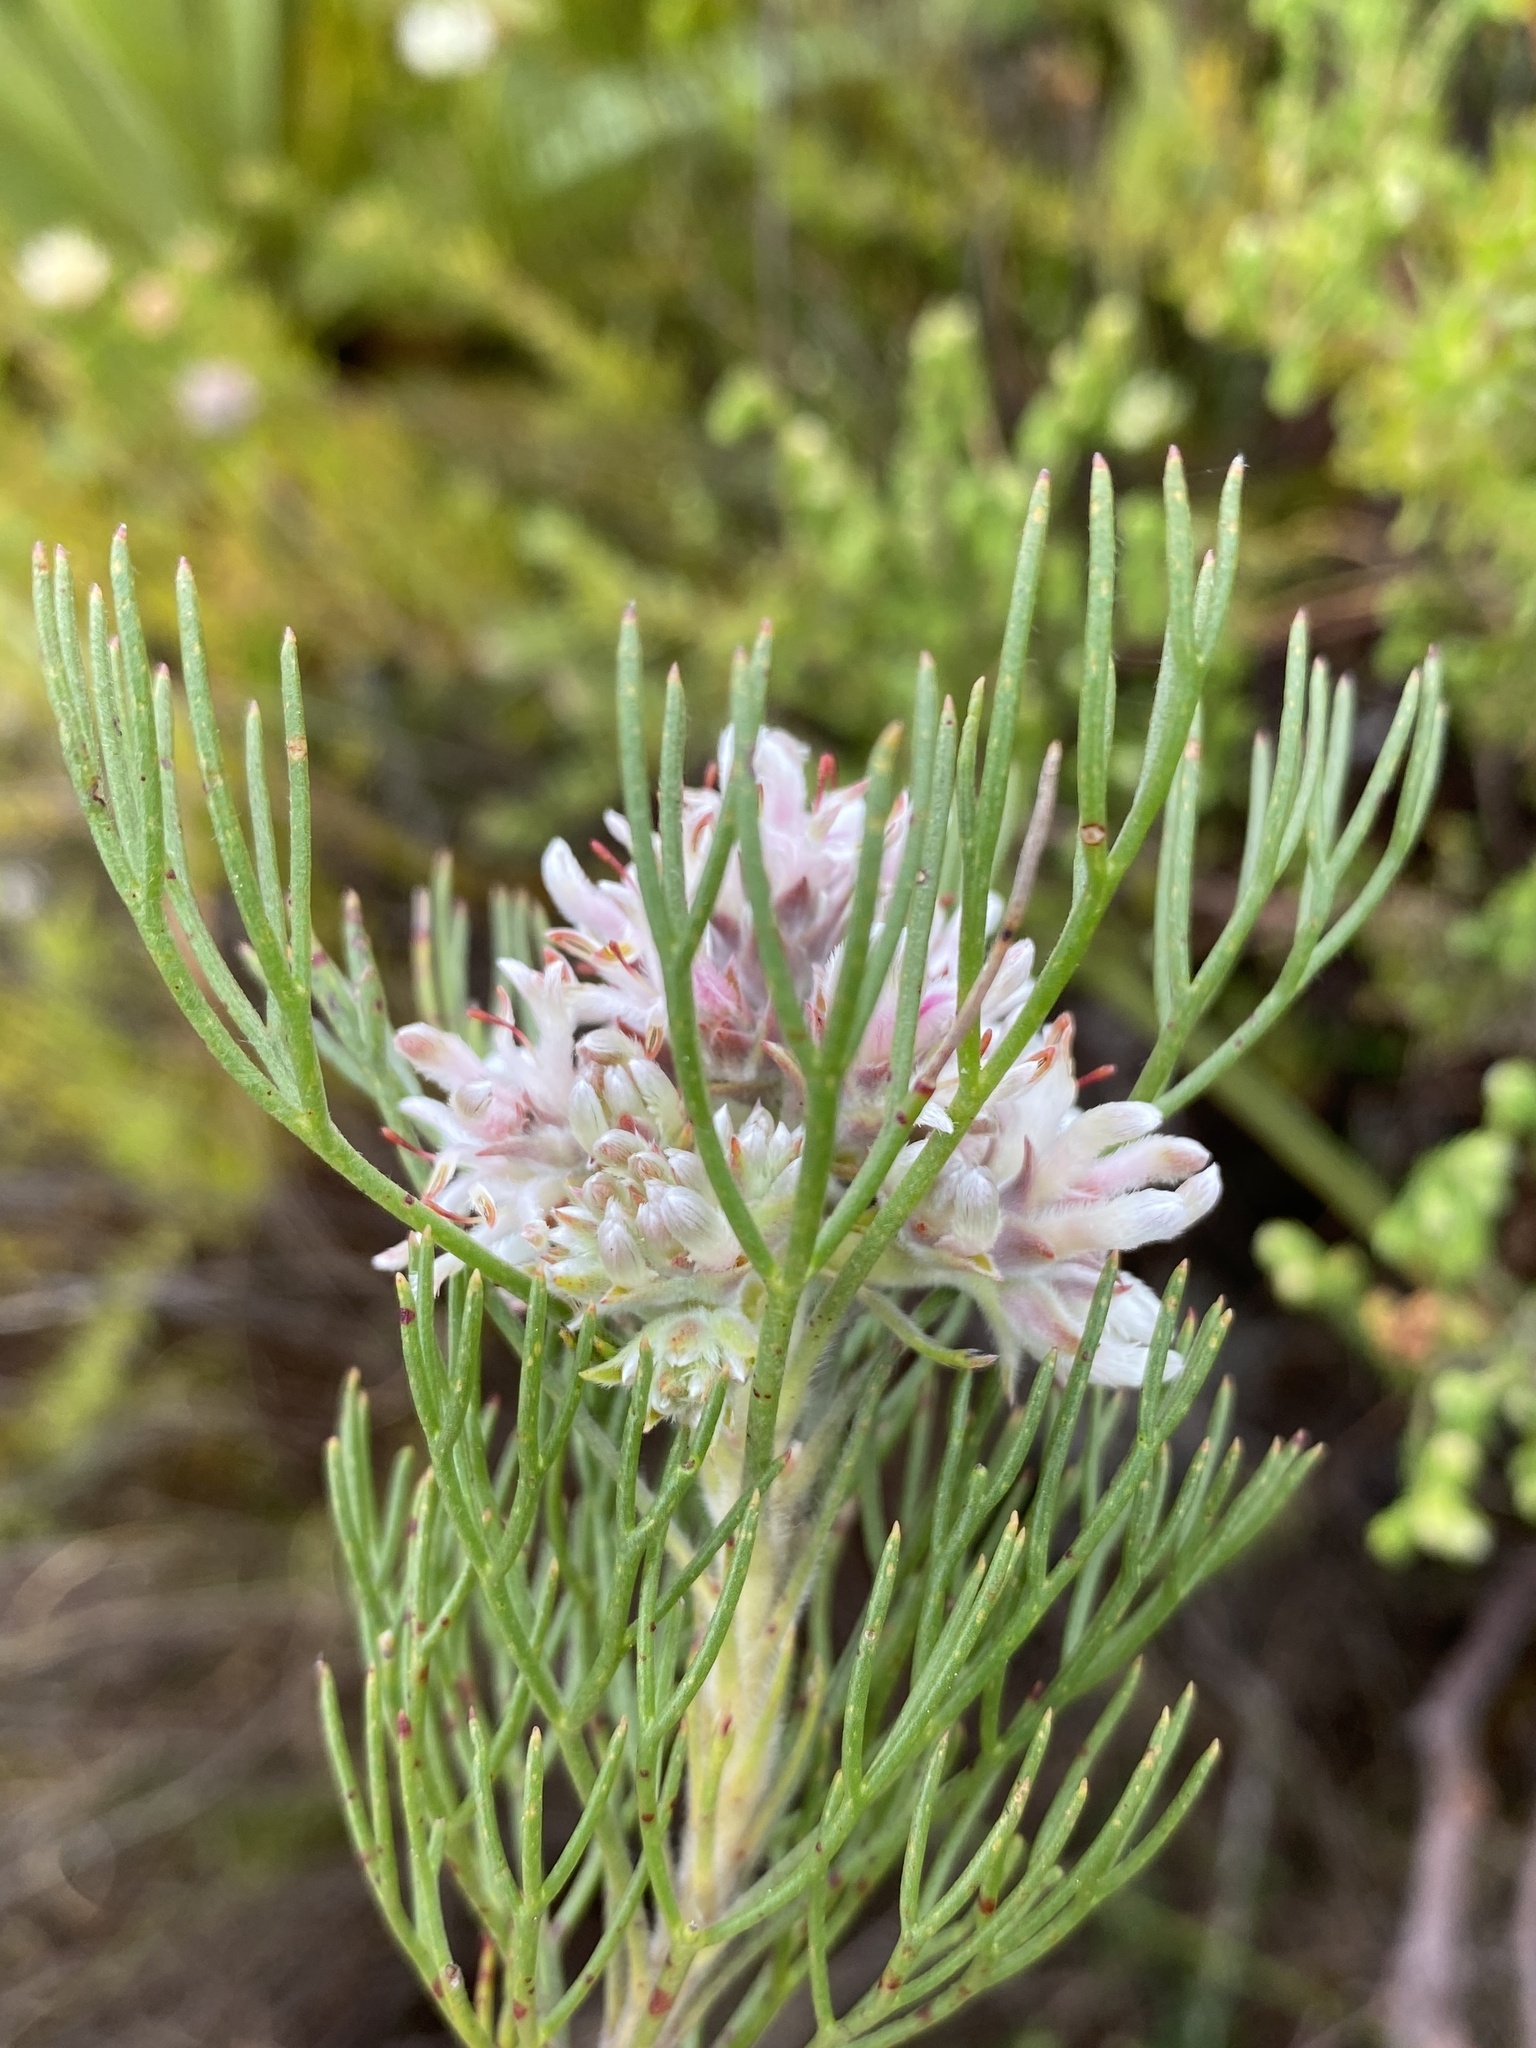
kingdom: Plantae
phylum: Tracheophyta
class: Magnoliopsida
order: Proteales
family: Proteaceae
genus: Serruria
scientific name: Serruria ascendens
